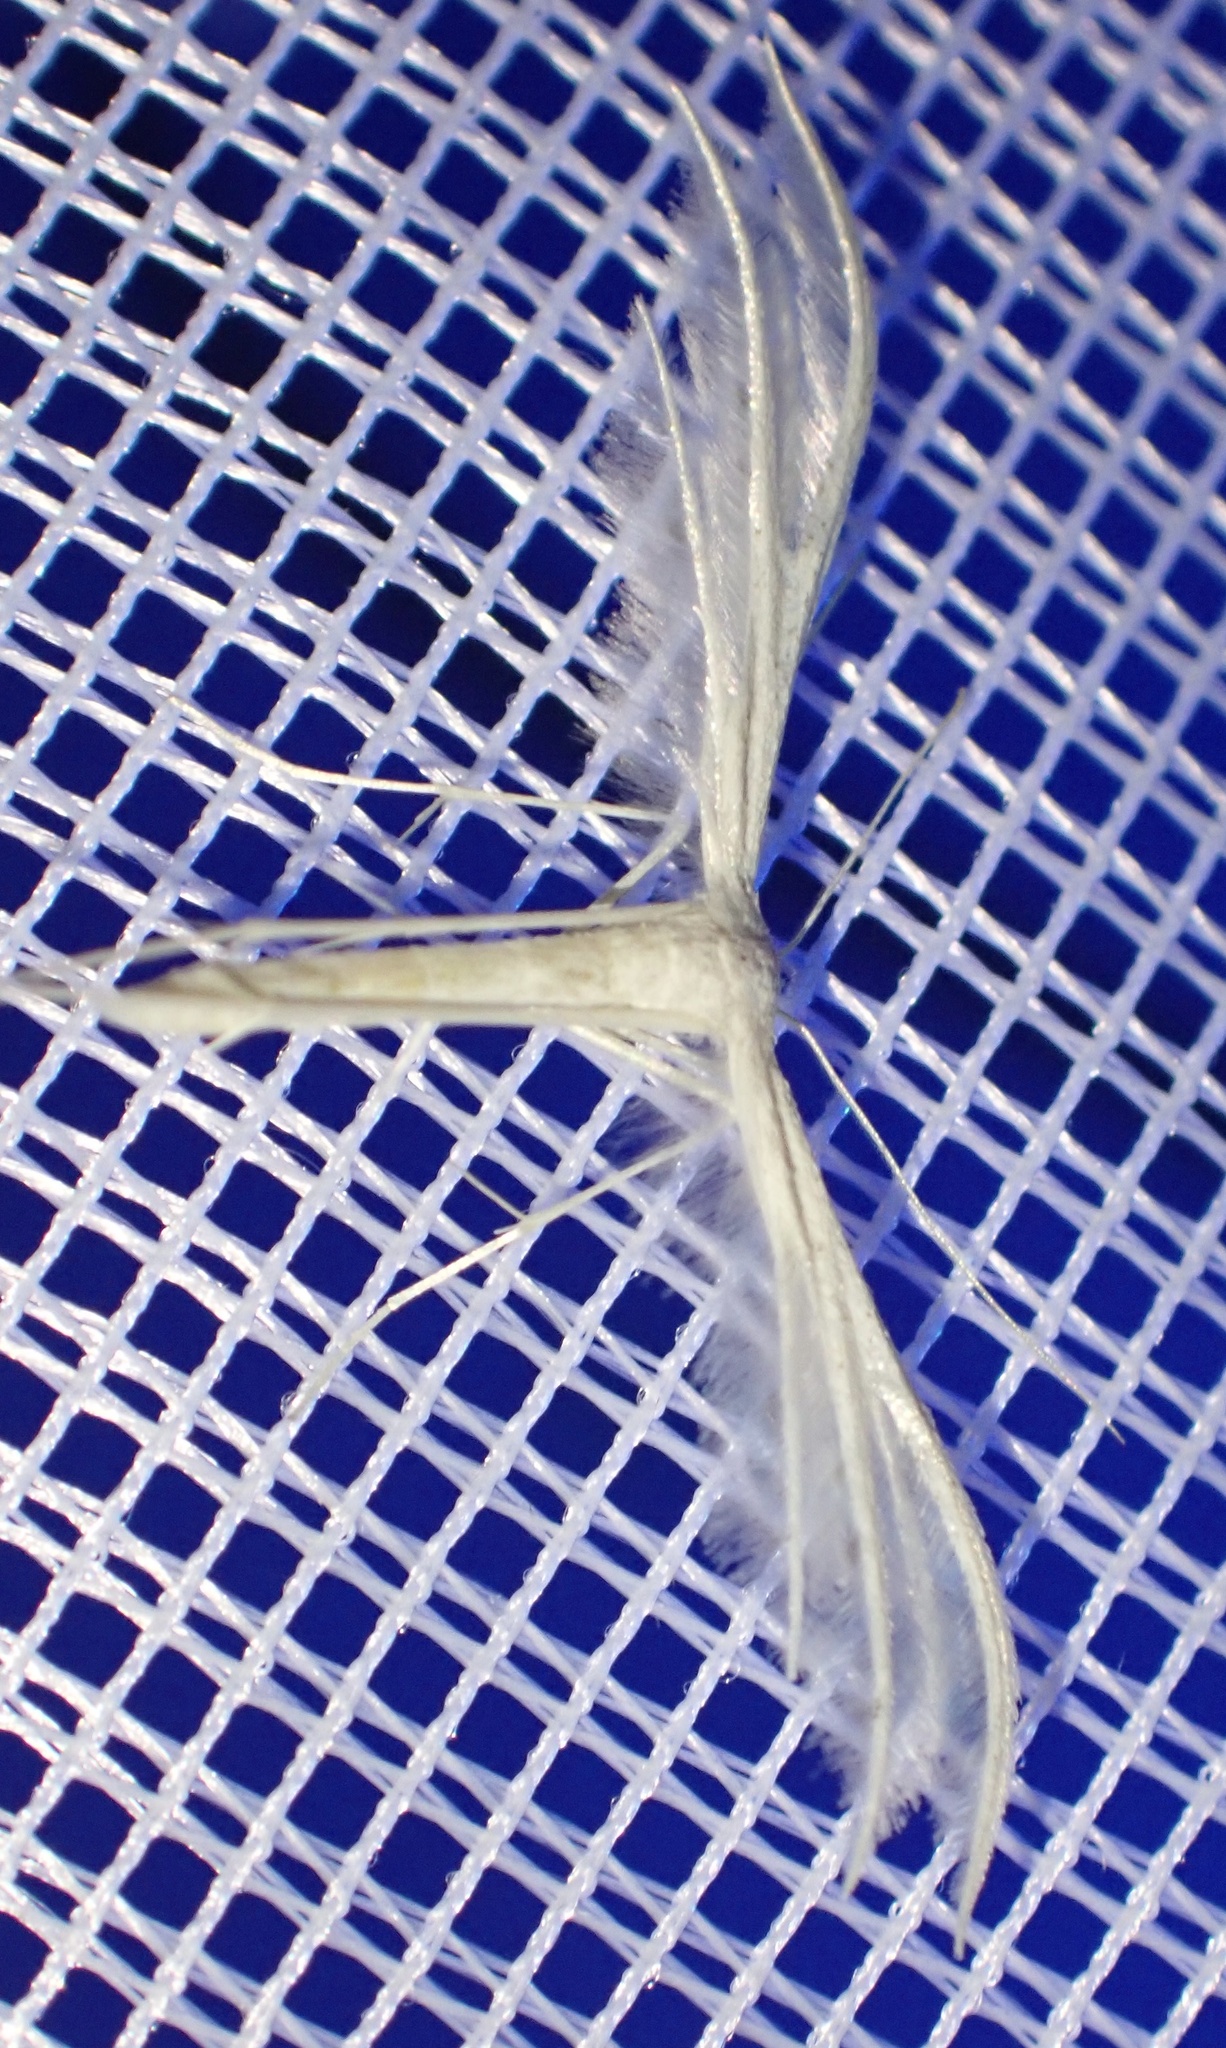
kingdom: Animalia
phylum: Arthropoda
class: Insecta
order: Lepidoptera
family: Pterophoridae
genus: Pterophorus
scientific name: Pterophorus pentadactyla
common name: White plume moth
